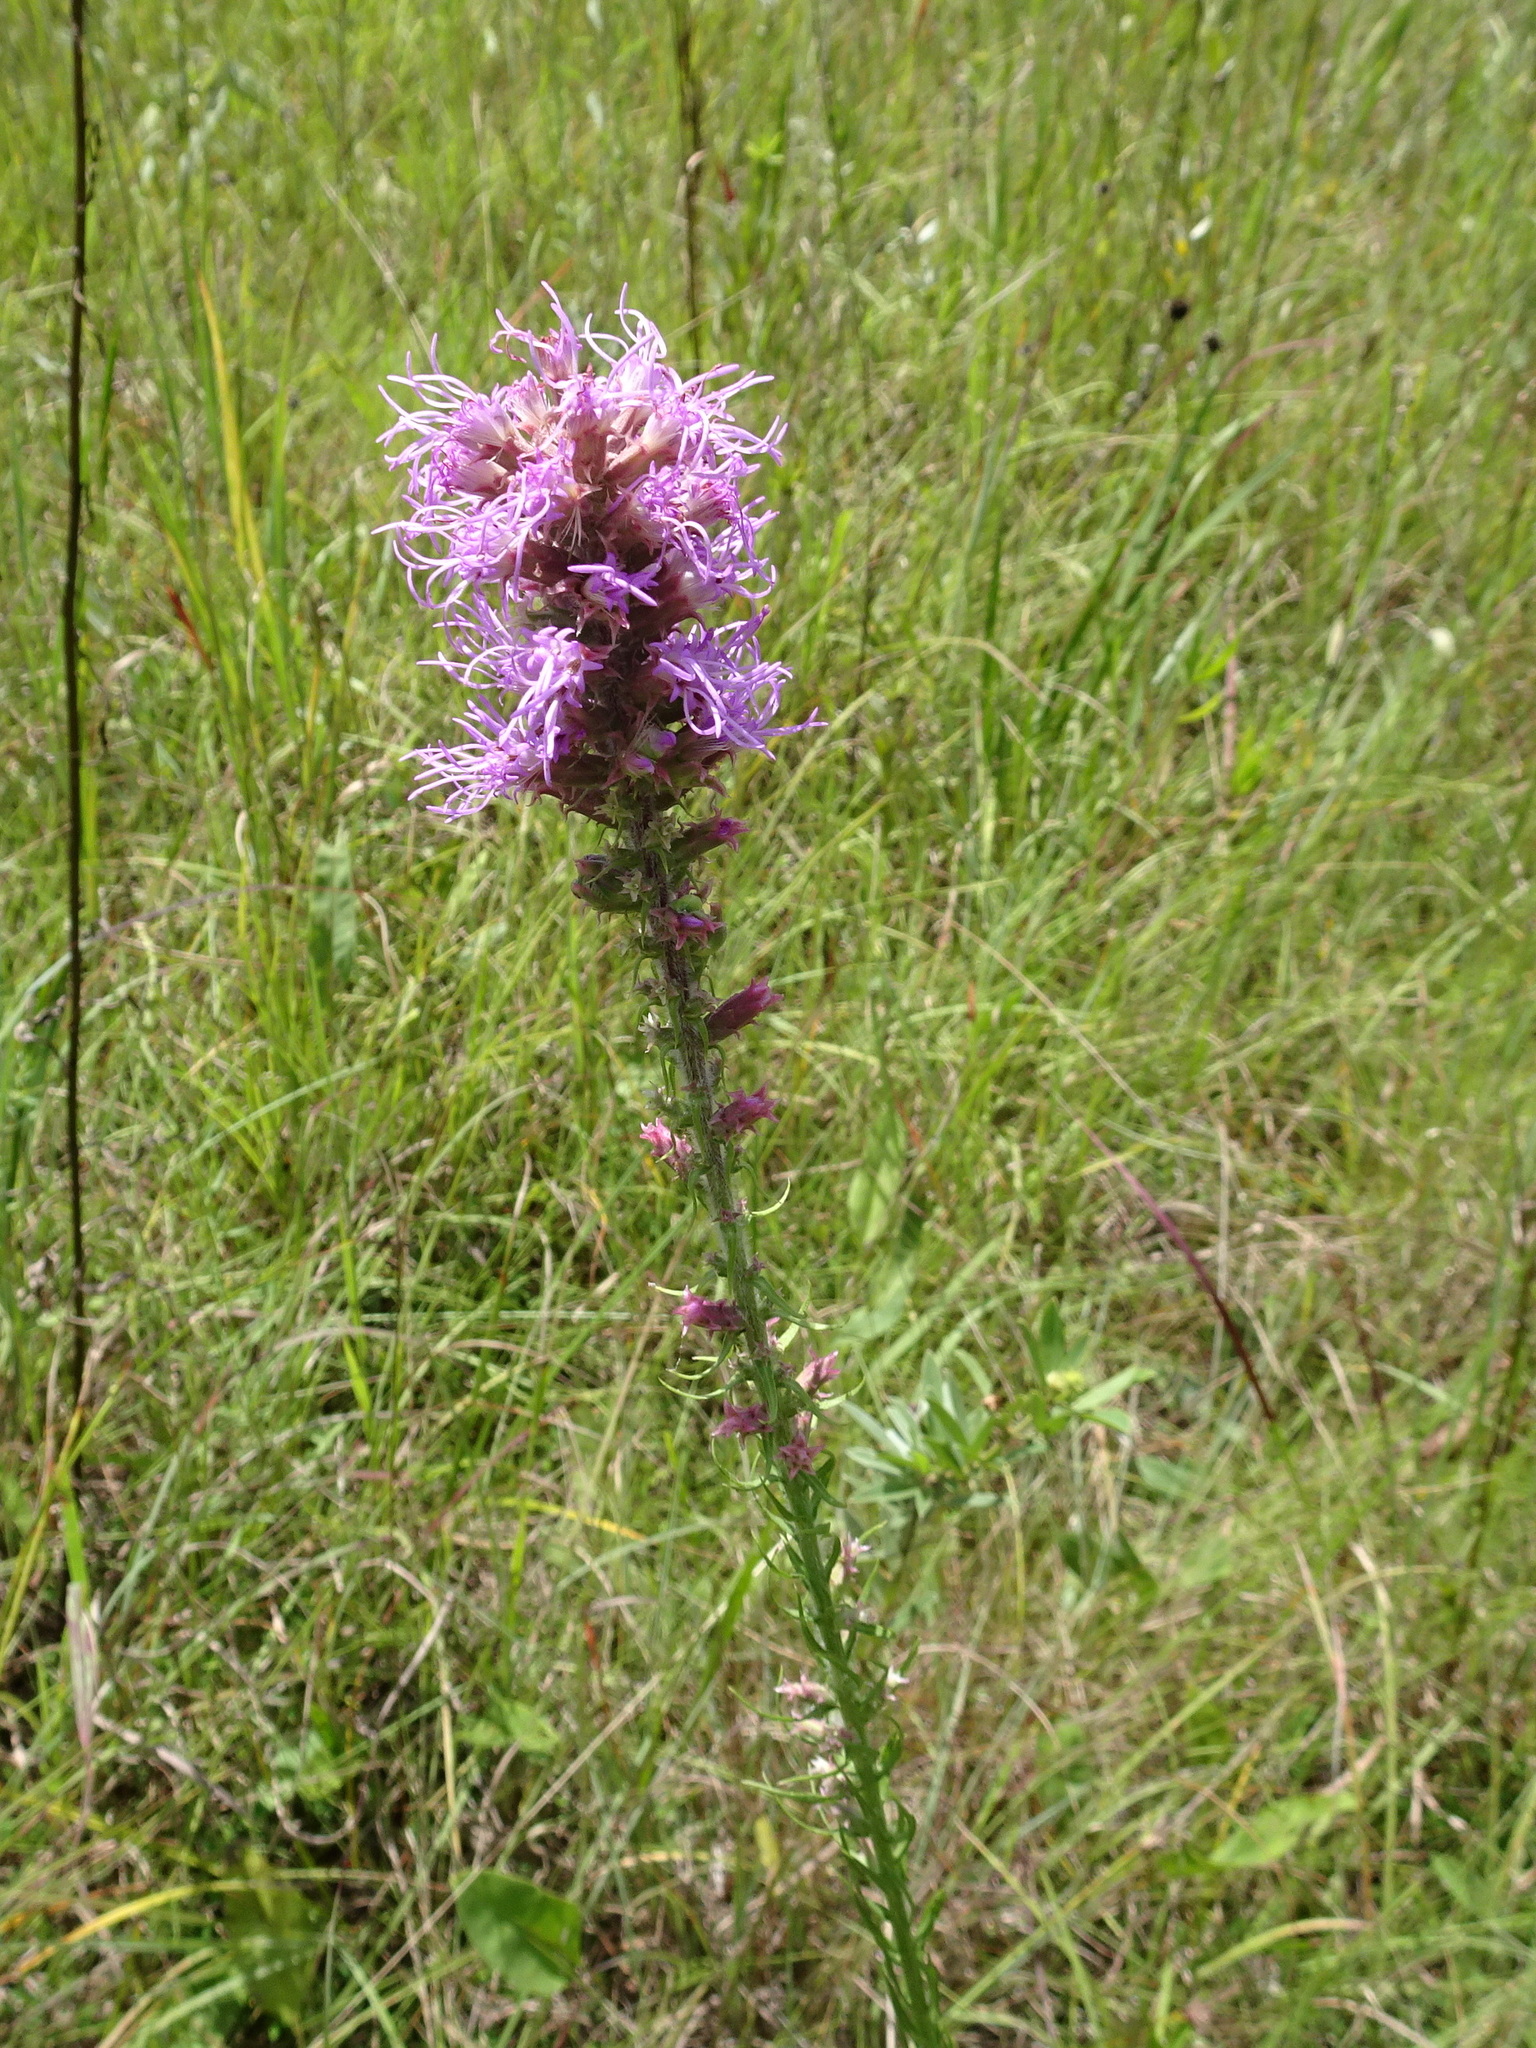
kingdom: Plantae
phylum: Tracheophyta
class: Magnoliopsida
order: Asterales
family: Asteraceae
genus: Liatris
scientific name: Liatris pycnostachya
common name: Cattail gayfeather
